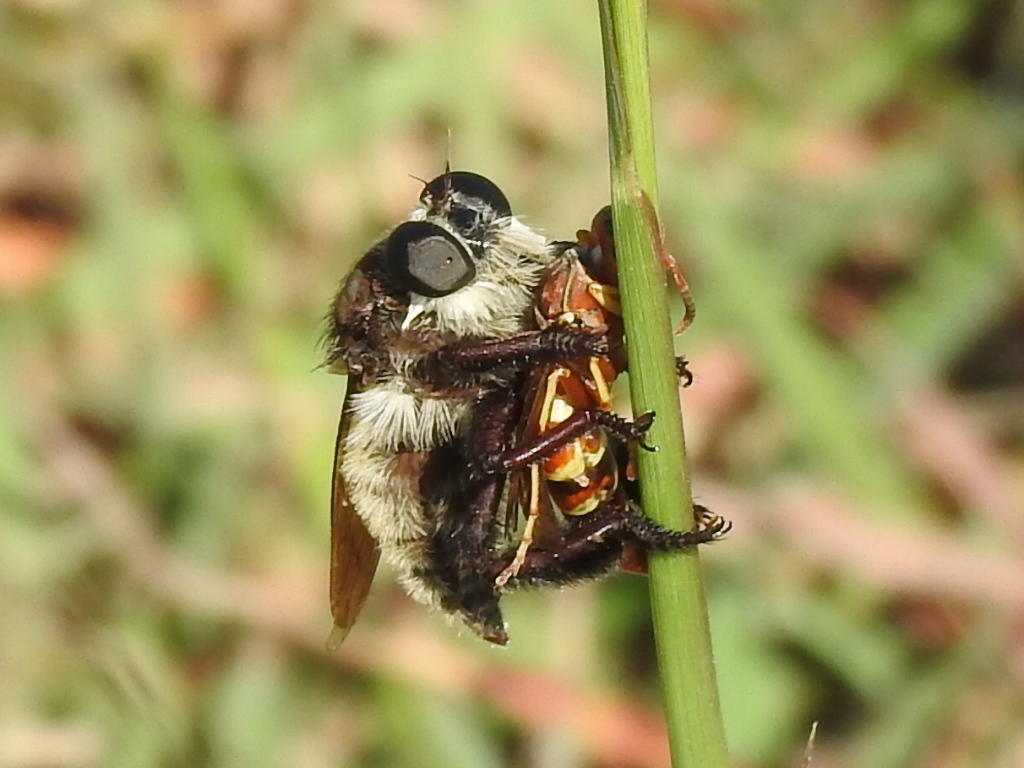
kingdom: Animalia
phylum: Arthropoda
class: Insecta
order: Diptera
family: Asilidae
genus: Mallophora
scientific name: Mallophora fautrix
